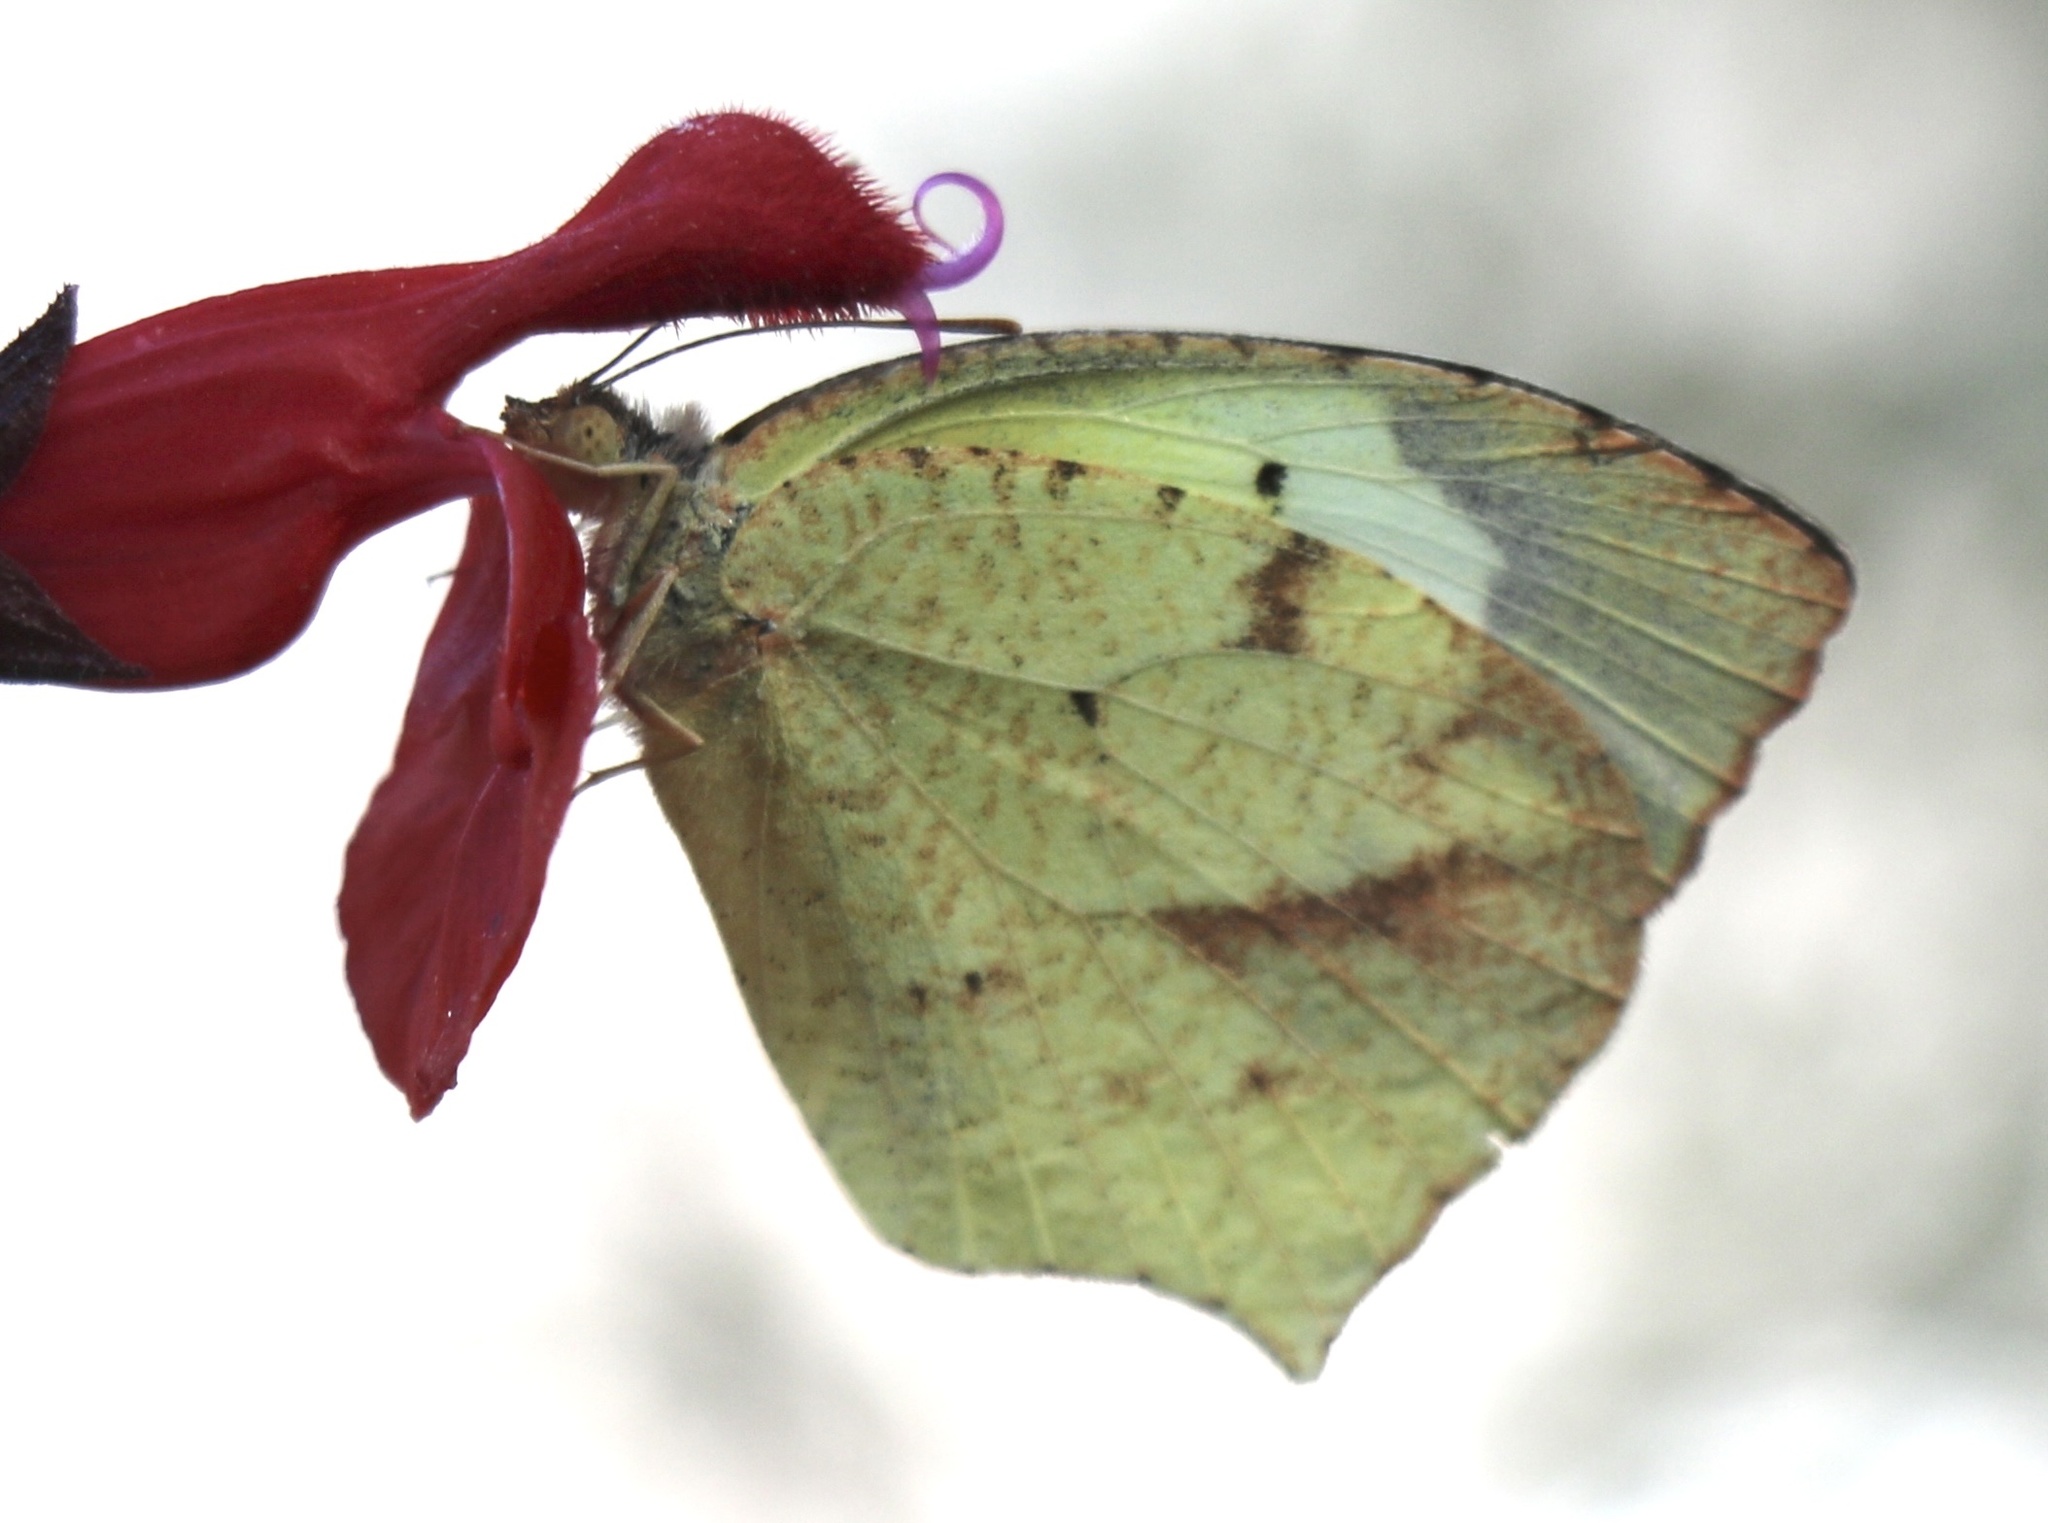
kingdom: Animalia
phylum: Arthropoda
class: Insecta
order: Lepidoptera
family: Pieridae
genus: Abaeis
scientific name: Abaeis mexicana
